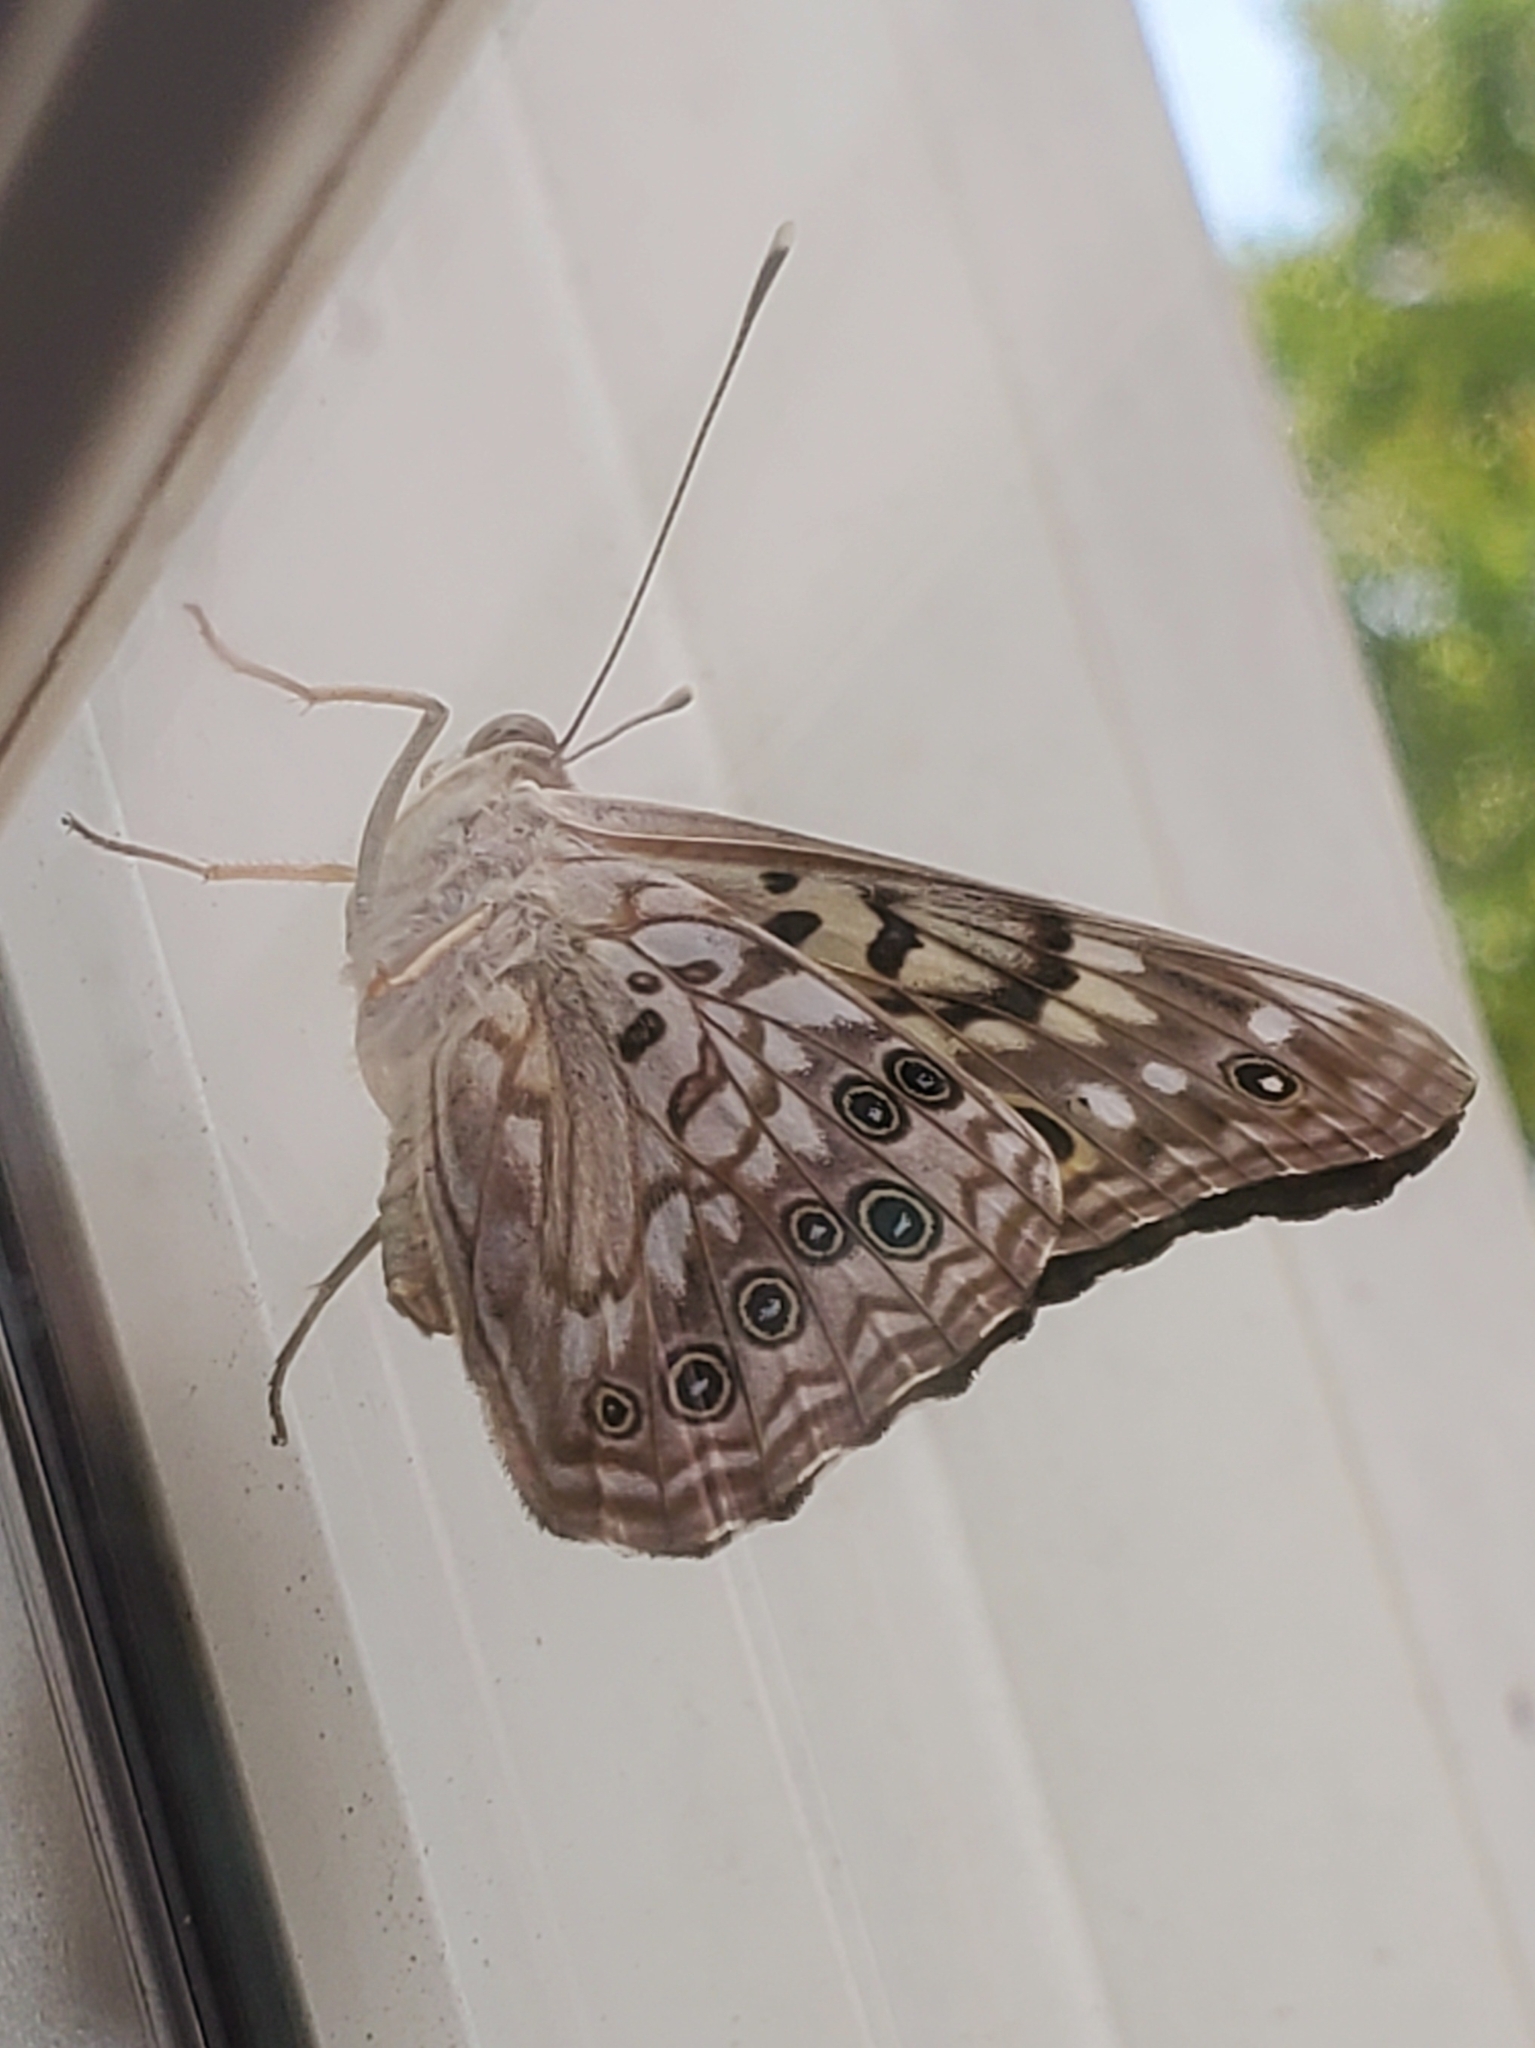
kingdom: Animalia
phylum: Arthropoda
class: Insecta
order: Lepidoptera
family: Nymphalidae
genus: Asterocampa
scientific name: Asterocampa celtis
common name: Hackberry emperor
